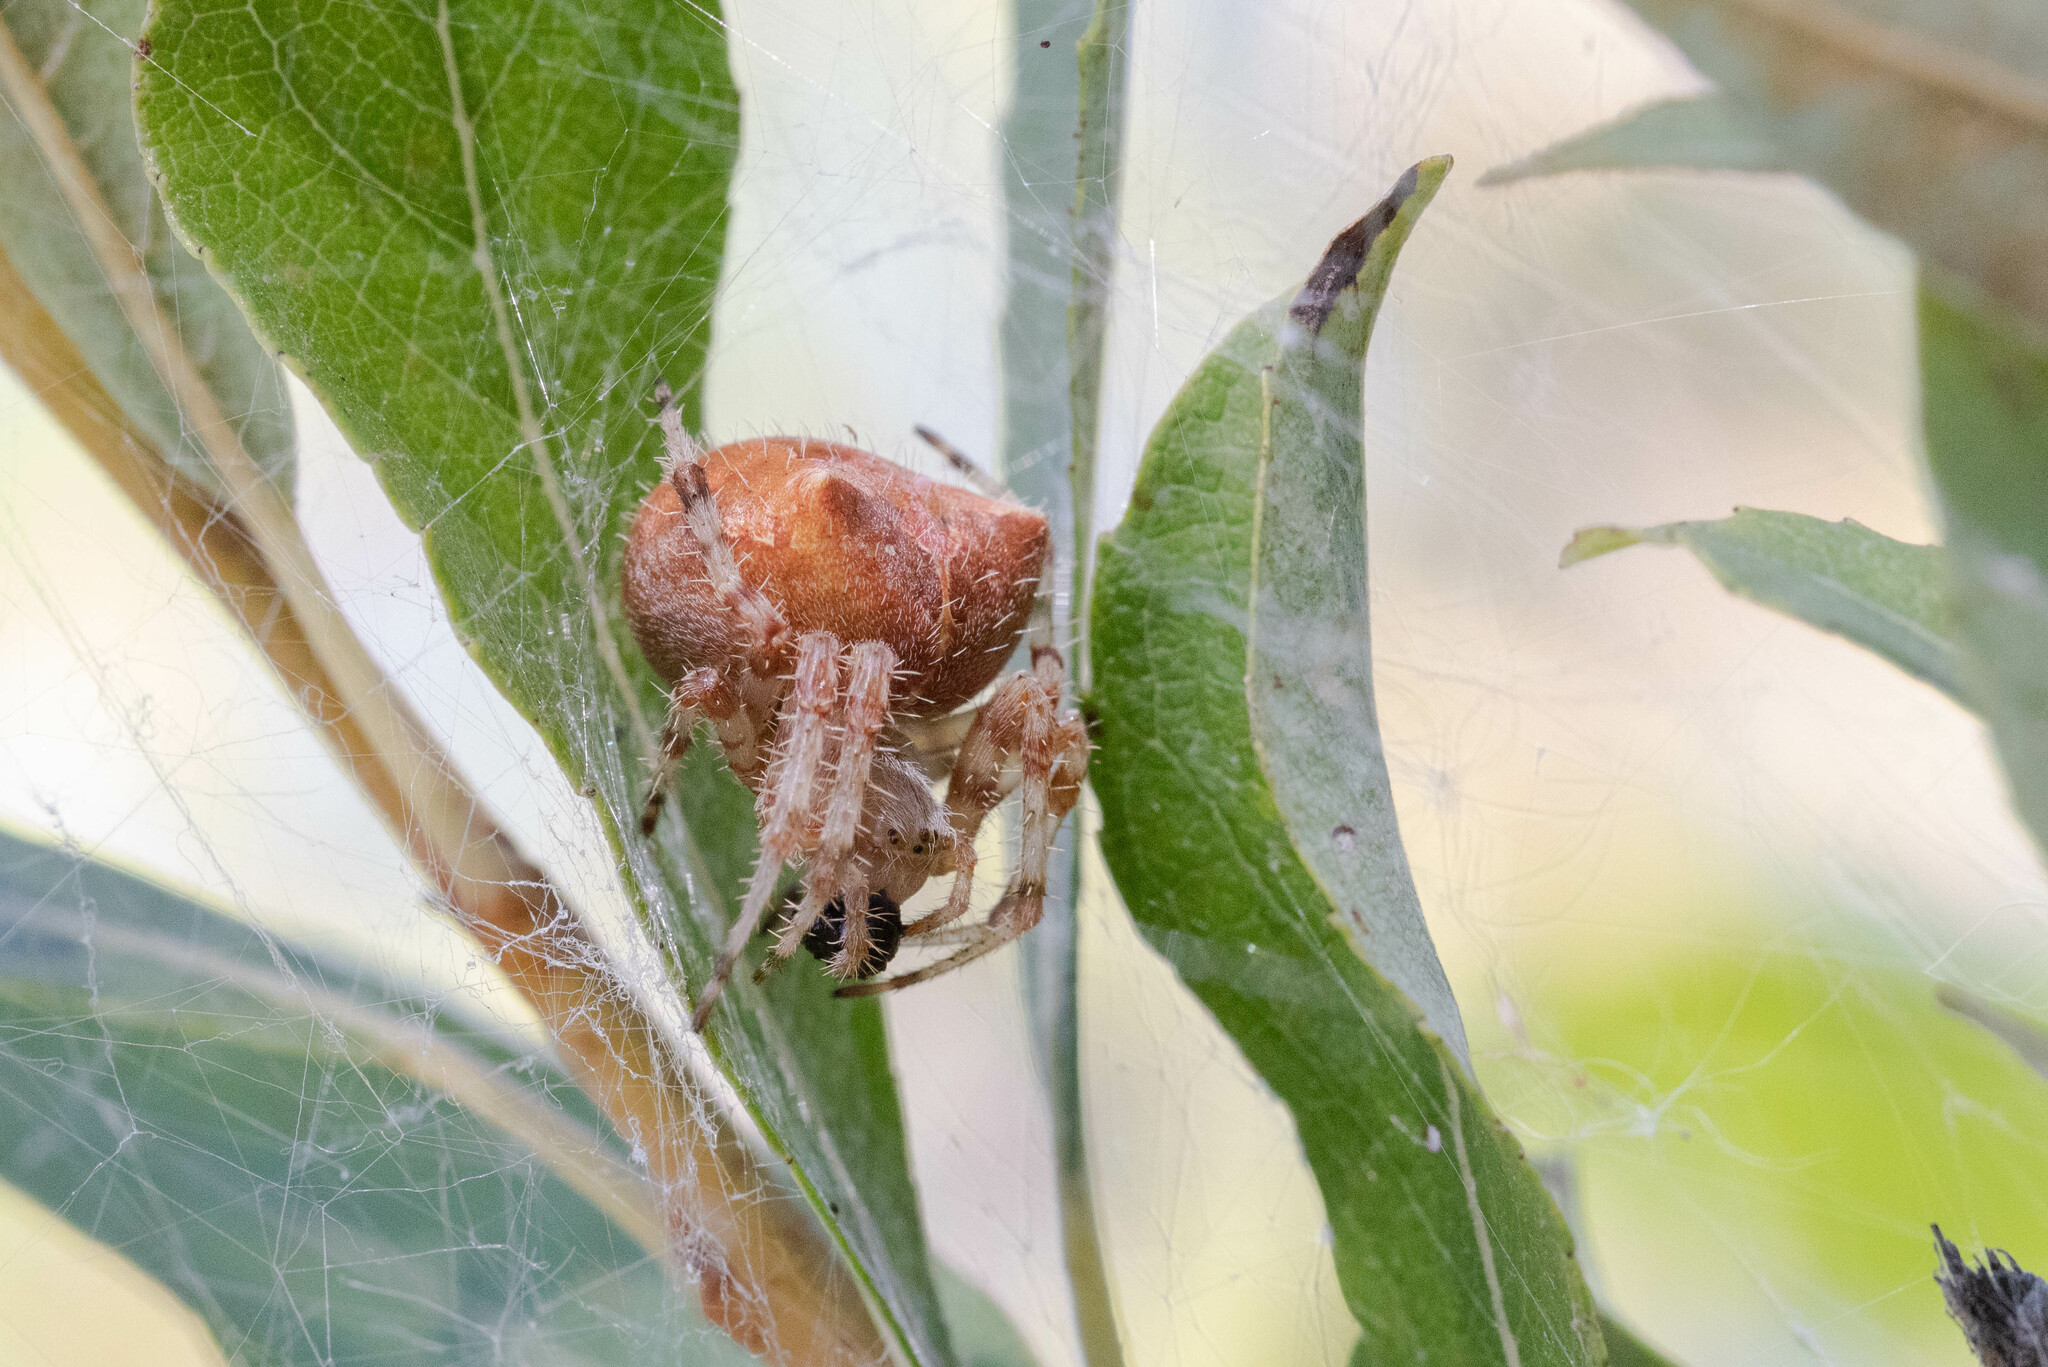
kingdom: Animalia
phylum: Arthropoda
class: Arachnida
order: Araneae
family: Araneidae
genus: Araneus
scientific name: Araneus gemmoides
